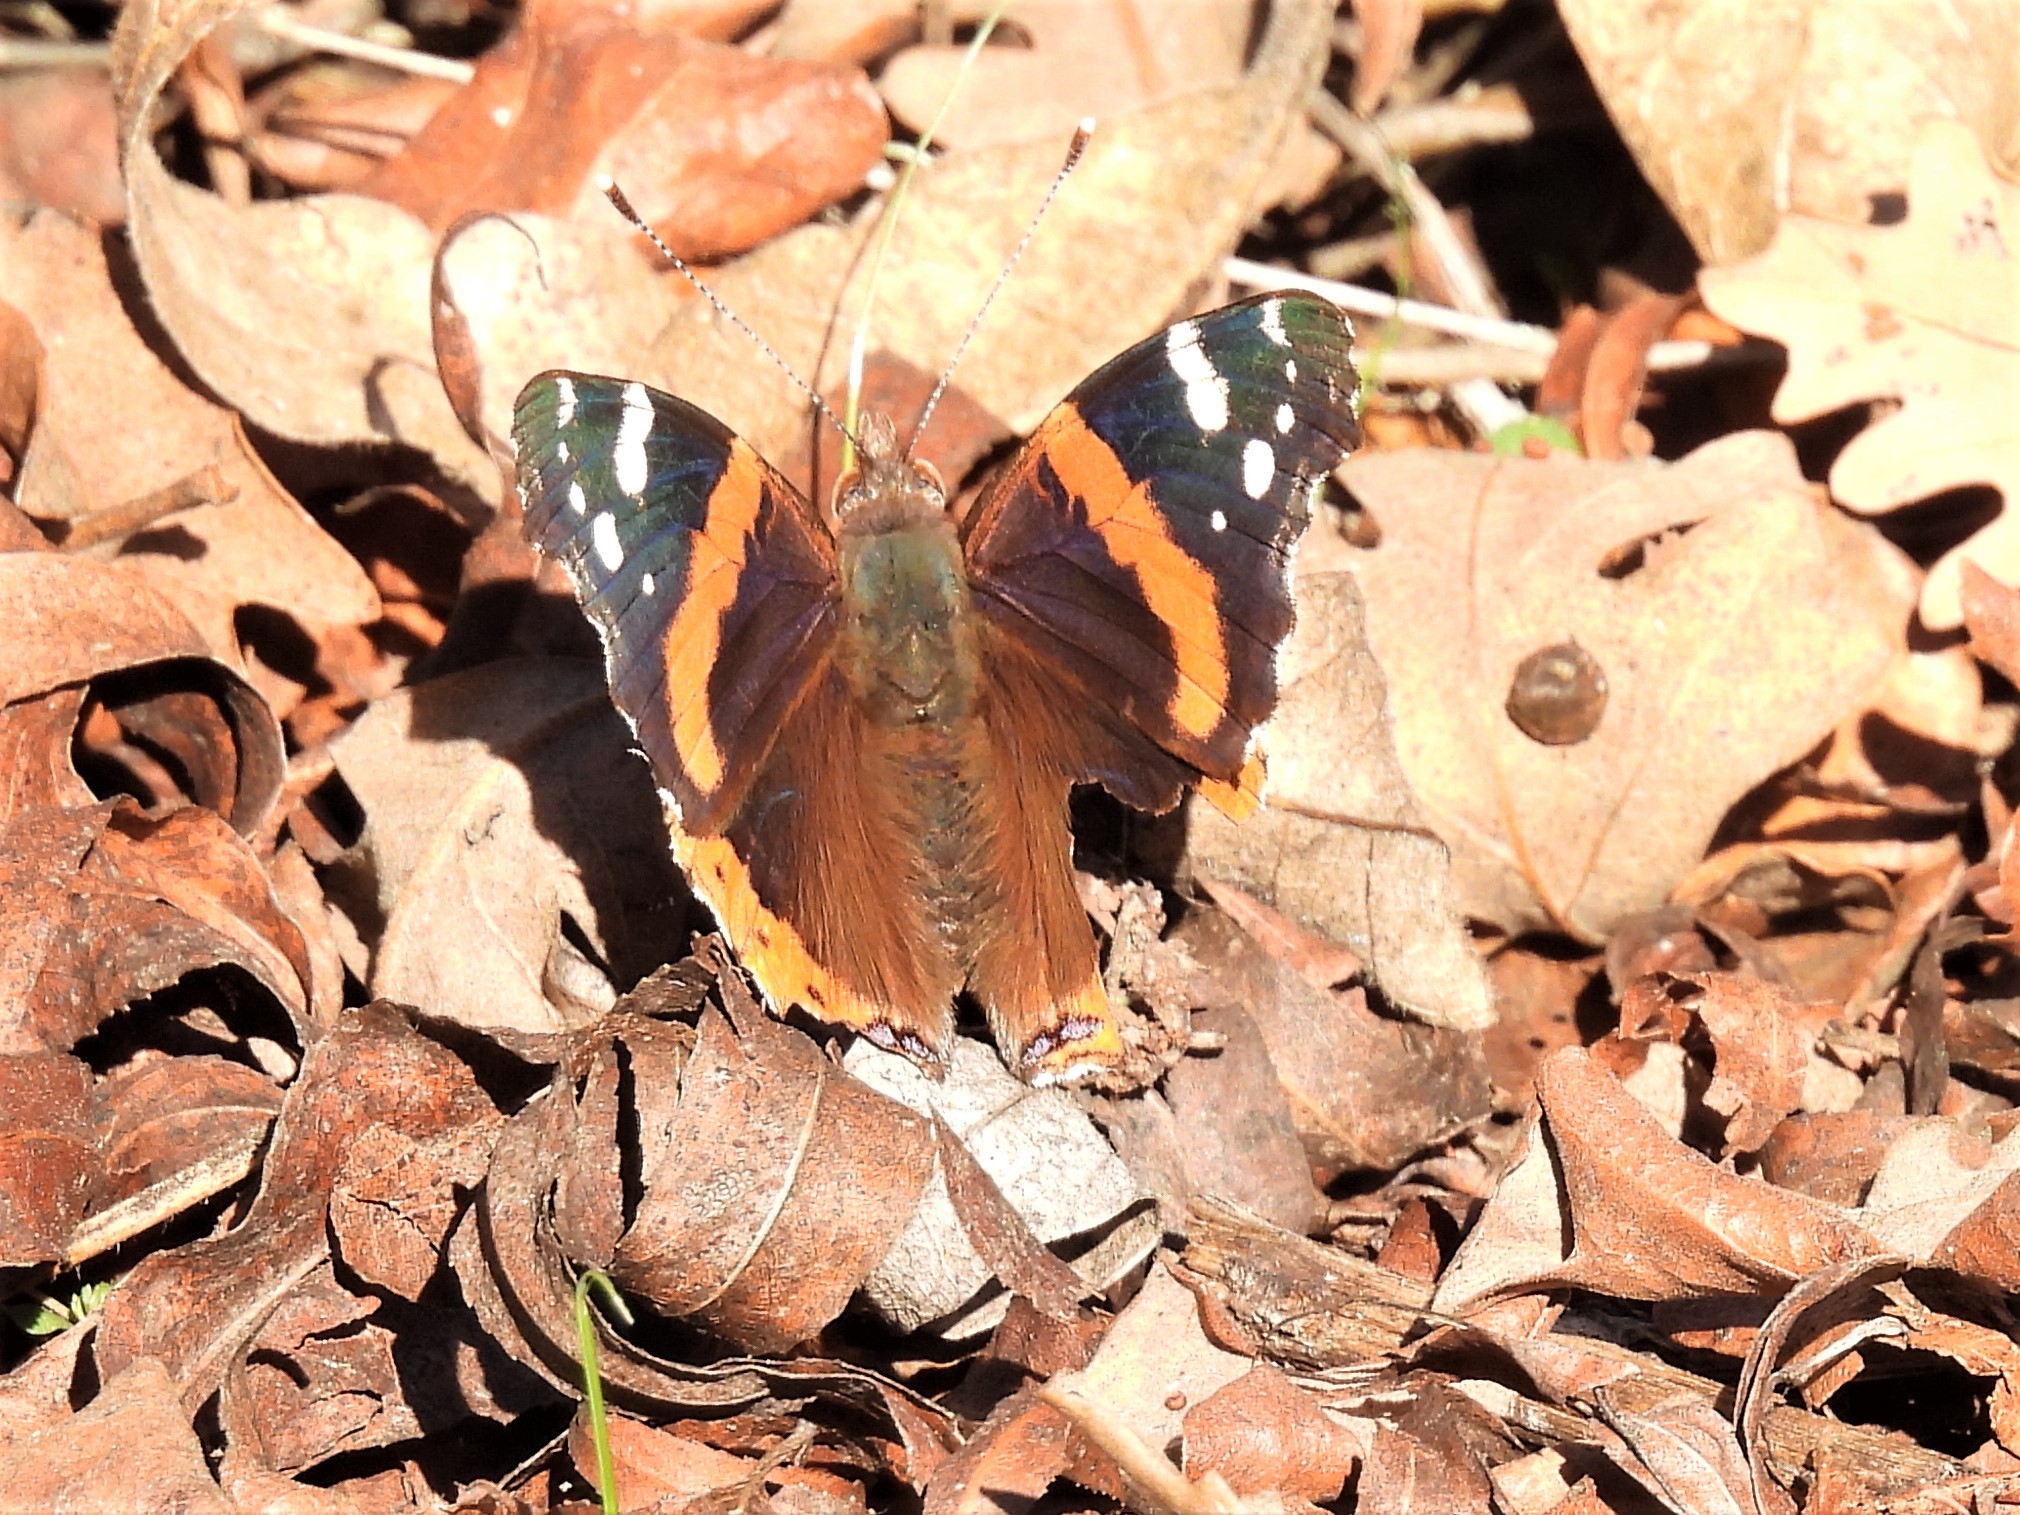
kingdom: Animalia
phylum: Arthropoda
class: Insecta
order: Lepidoptera
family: Nymphalidae
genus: Vanessa
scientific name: Vanessa atalanta
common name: Red admiral
